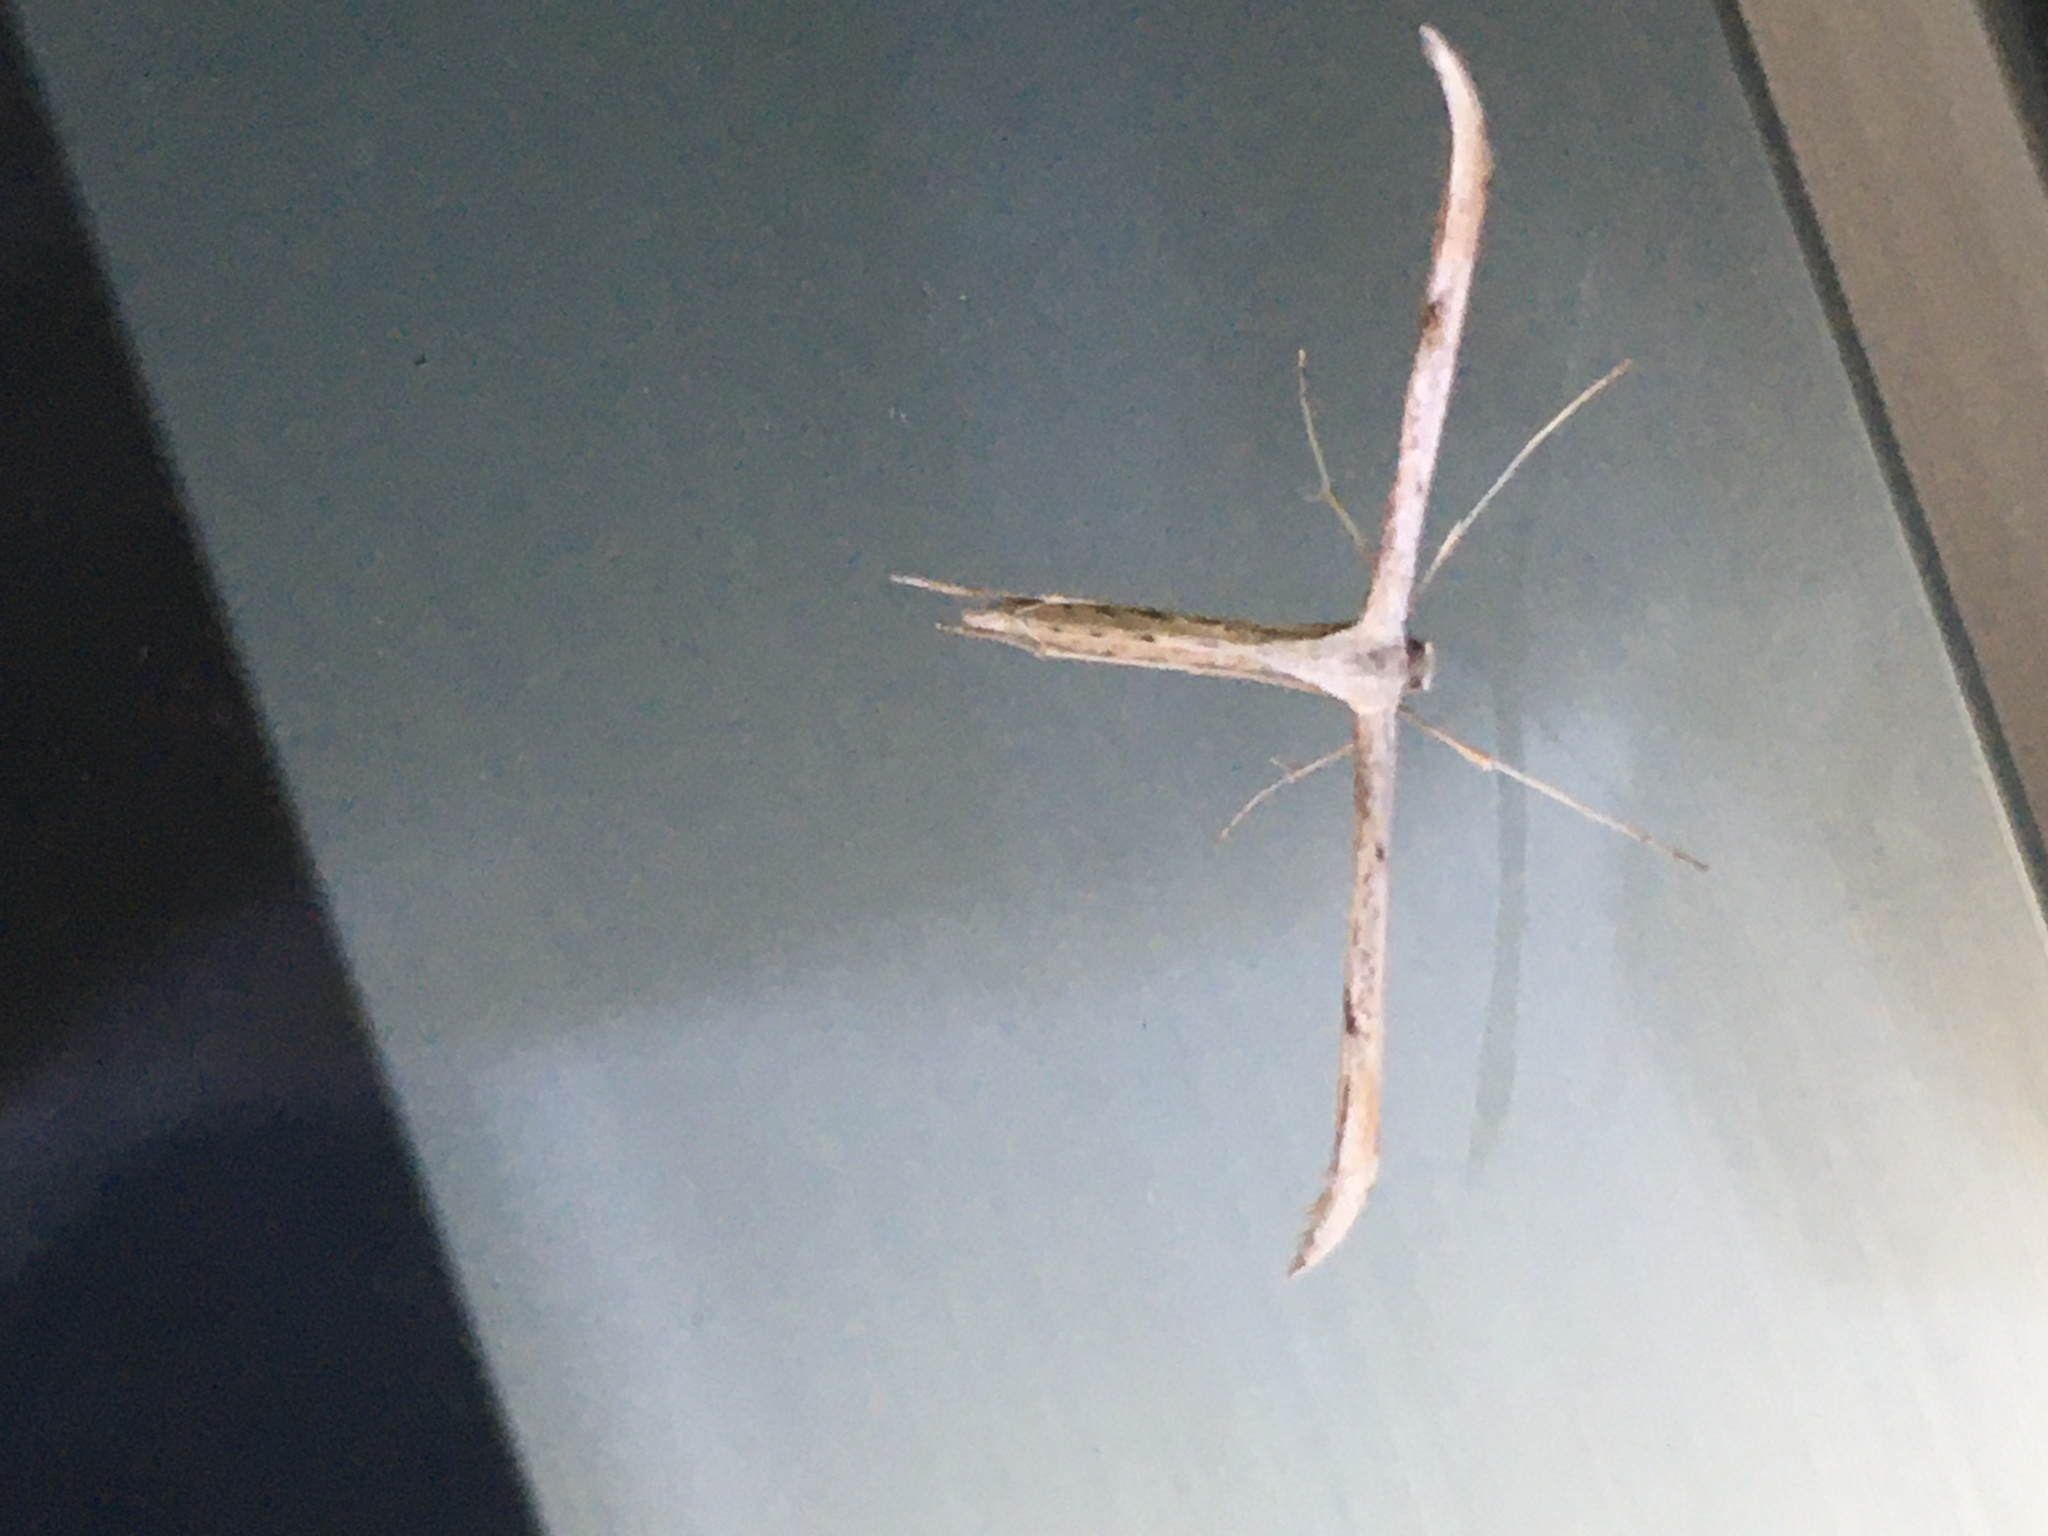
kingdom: Animalia
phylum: Arthropoda
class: Insecta
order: Lepidoptera
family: Pterophoridae
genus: Emmelina
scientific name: Emmelina monodactyla
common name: Common plume
